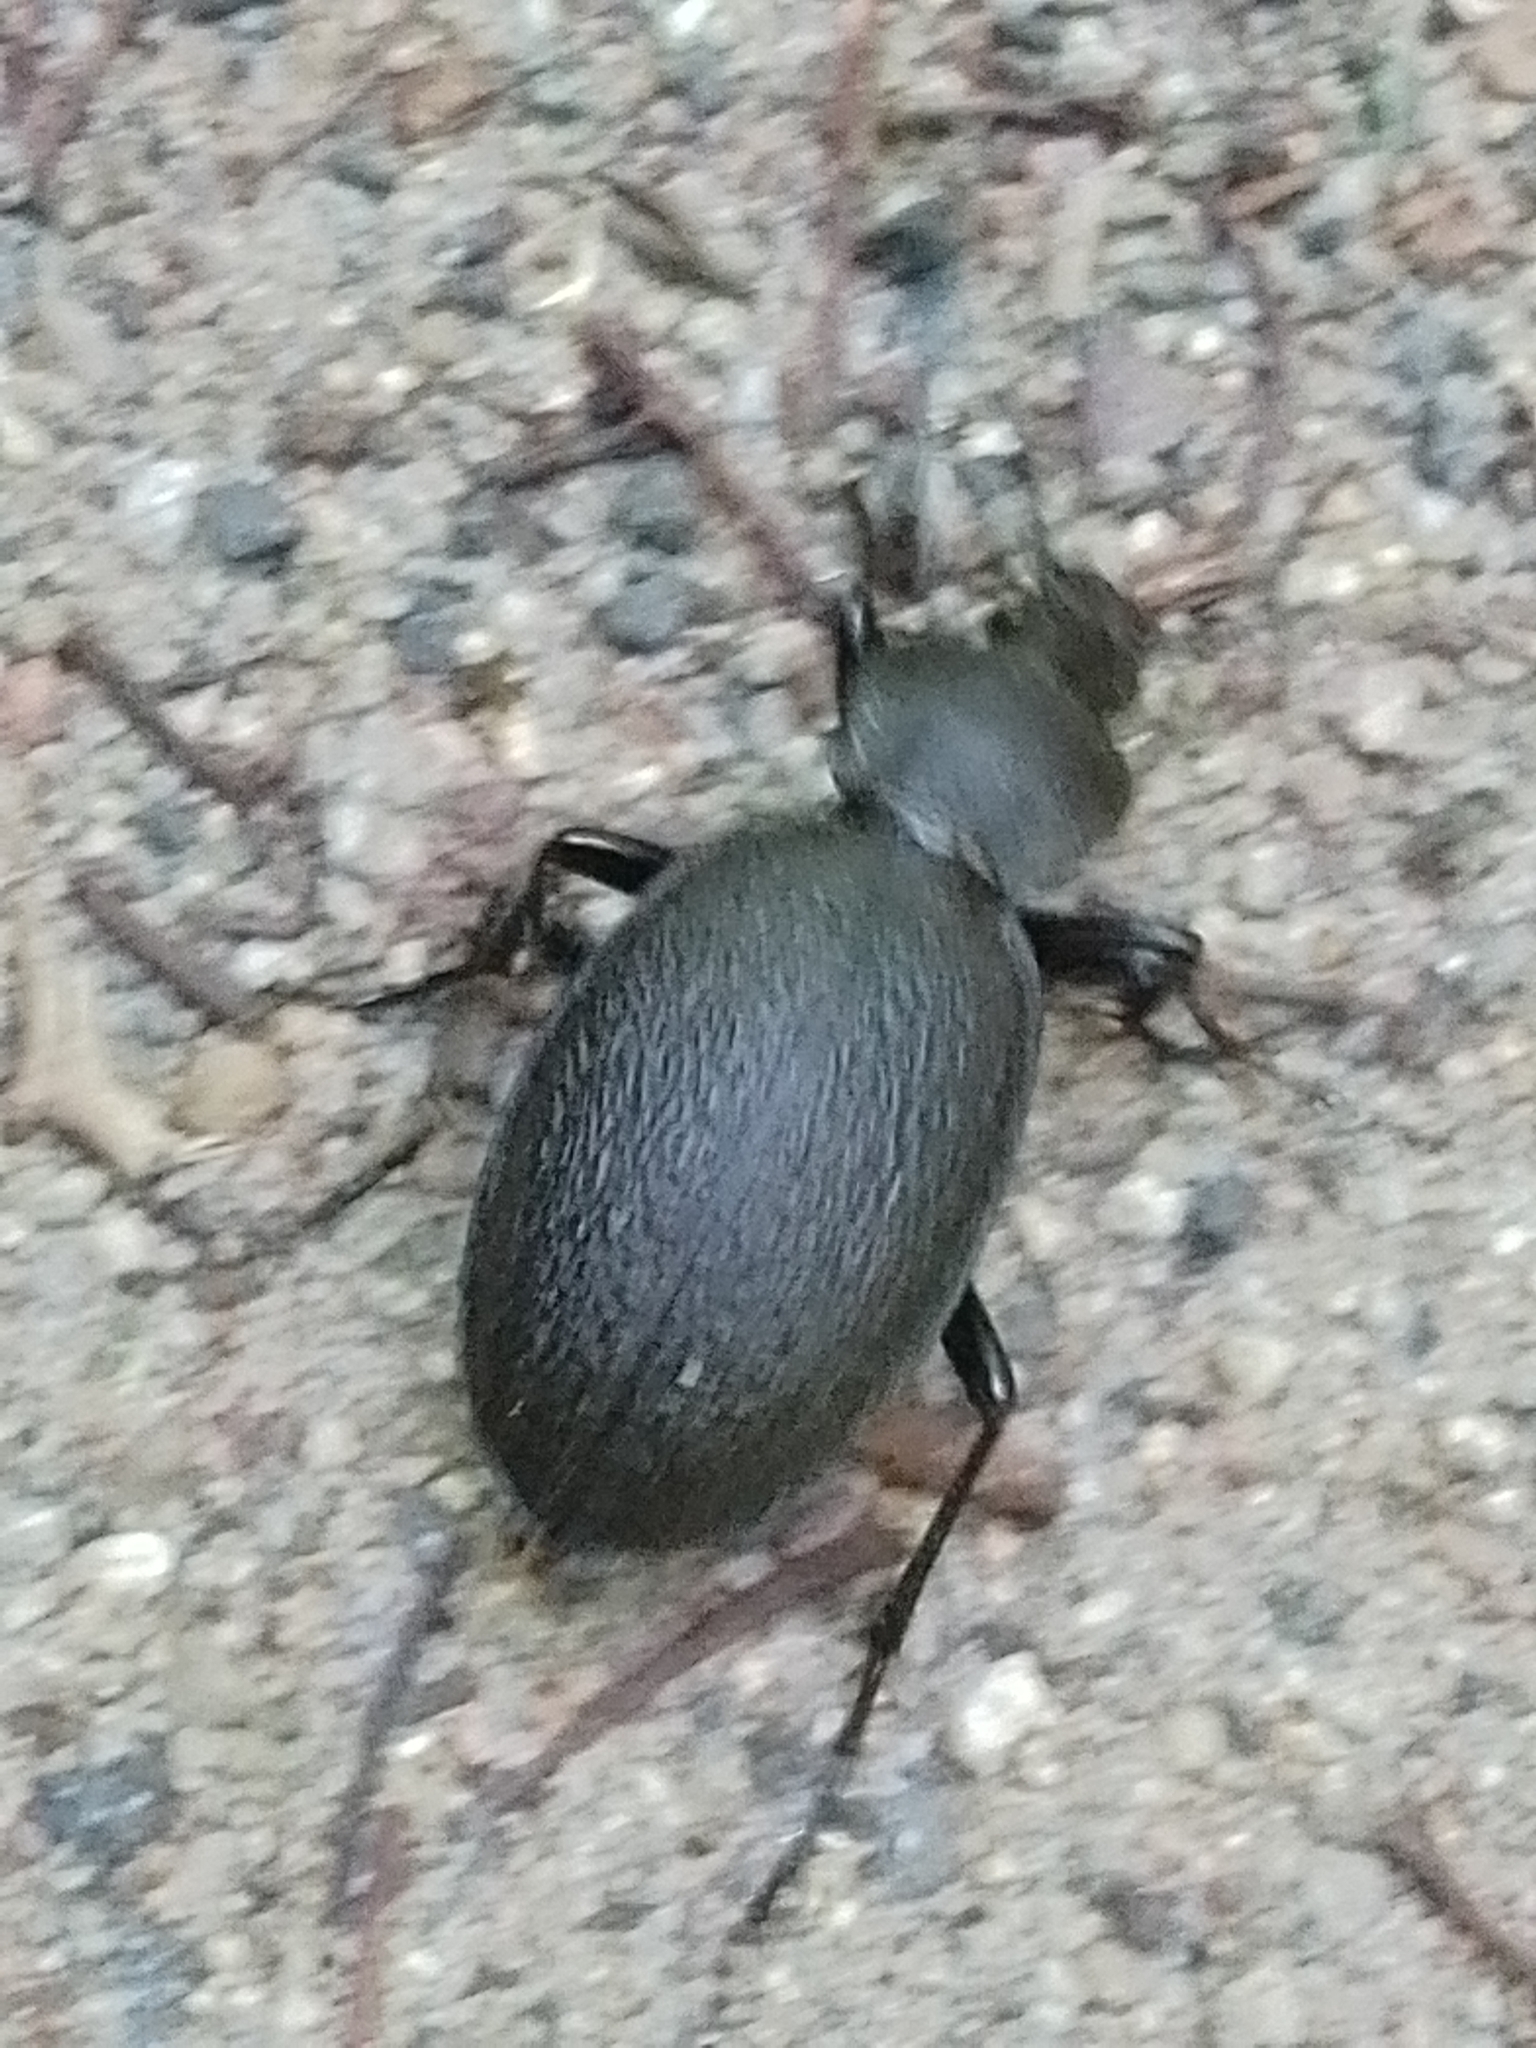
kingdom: Animalia
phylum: Arthropoda
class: Insecta
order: Coleoptera
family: Carabidae
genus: Carabus
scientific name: Carabus coriaceus
